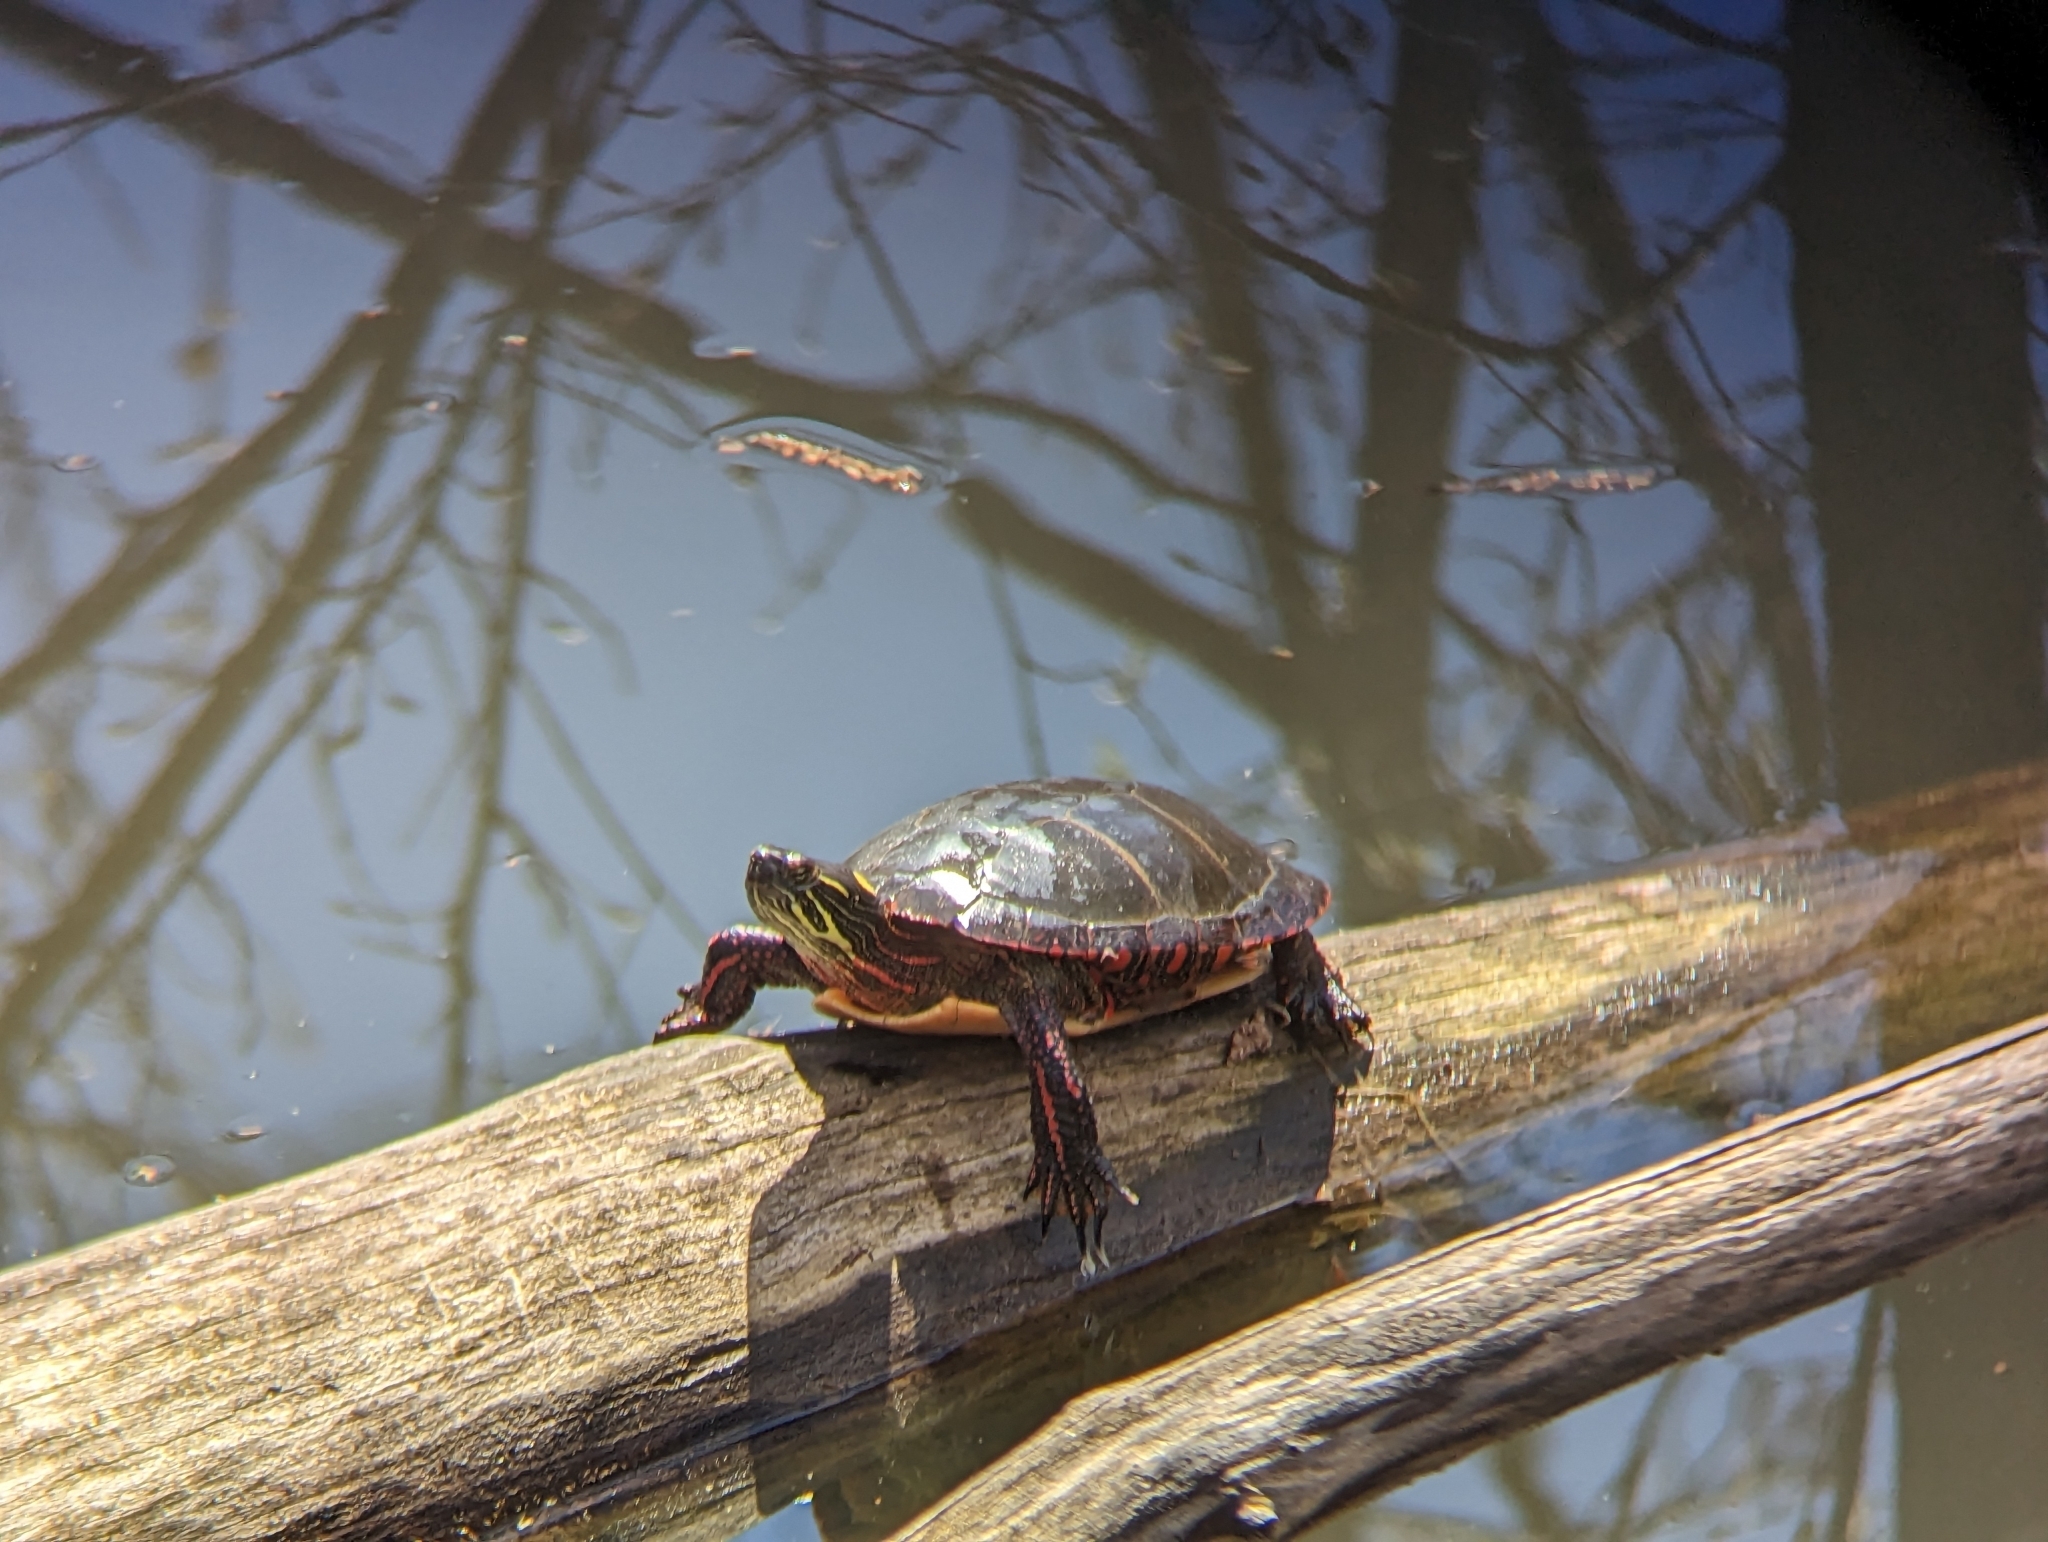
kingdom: Animalia
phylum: Chordata
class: Testudines
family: Emydidae
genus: Chrysemys
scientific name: Chrysemys picta
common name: Painted turtle
